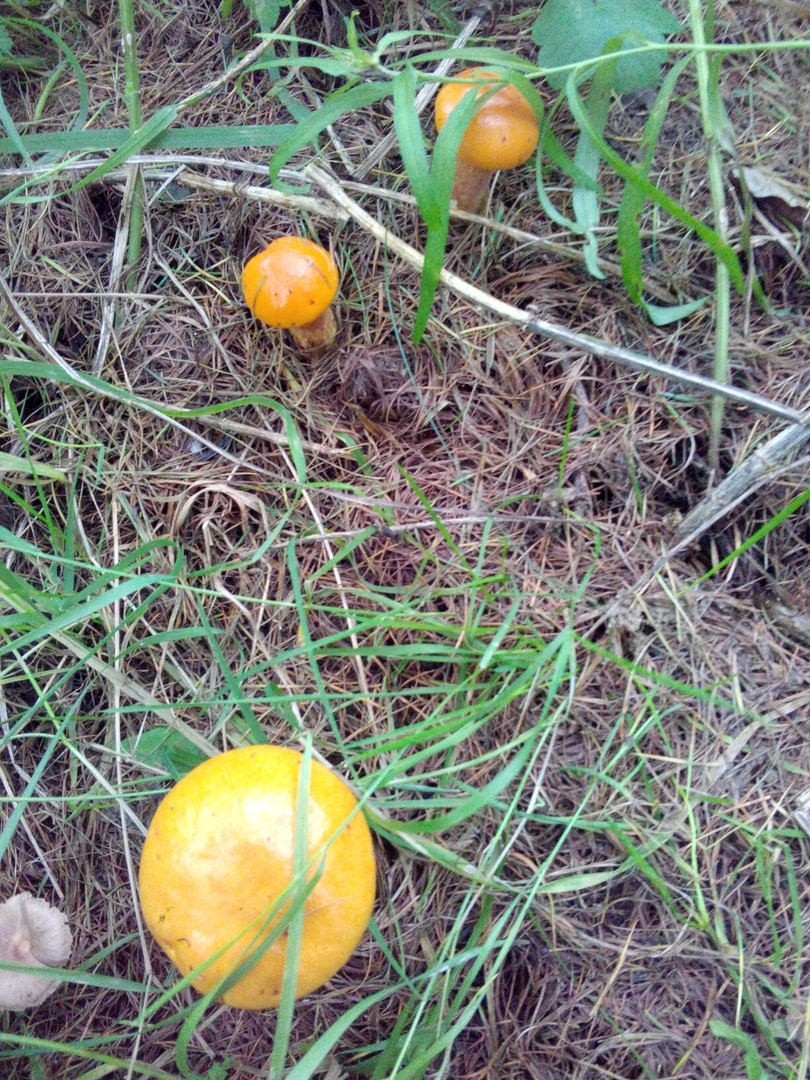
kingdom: Fungi
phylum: Basidiomycota
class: Agaricomycetes
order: Boletales
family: Suillaceae
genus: Suillus
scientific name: Suillus grevillei
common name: Larch bolete
